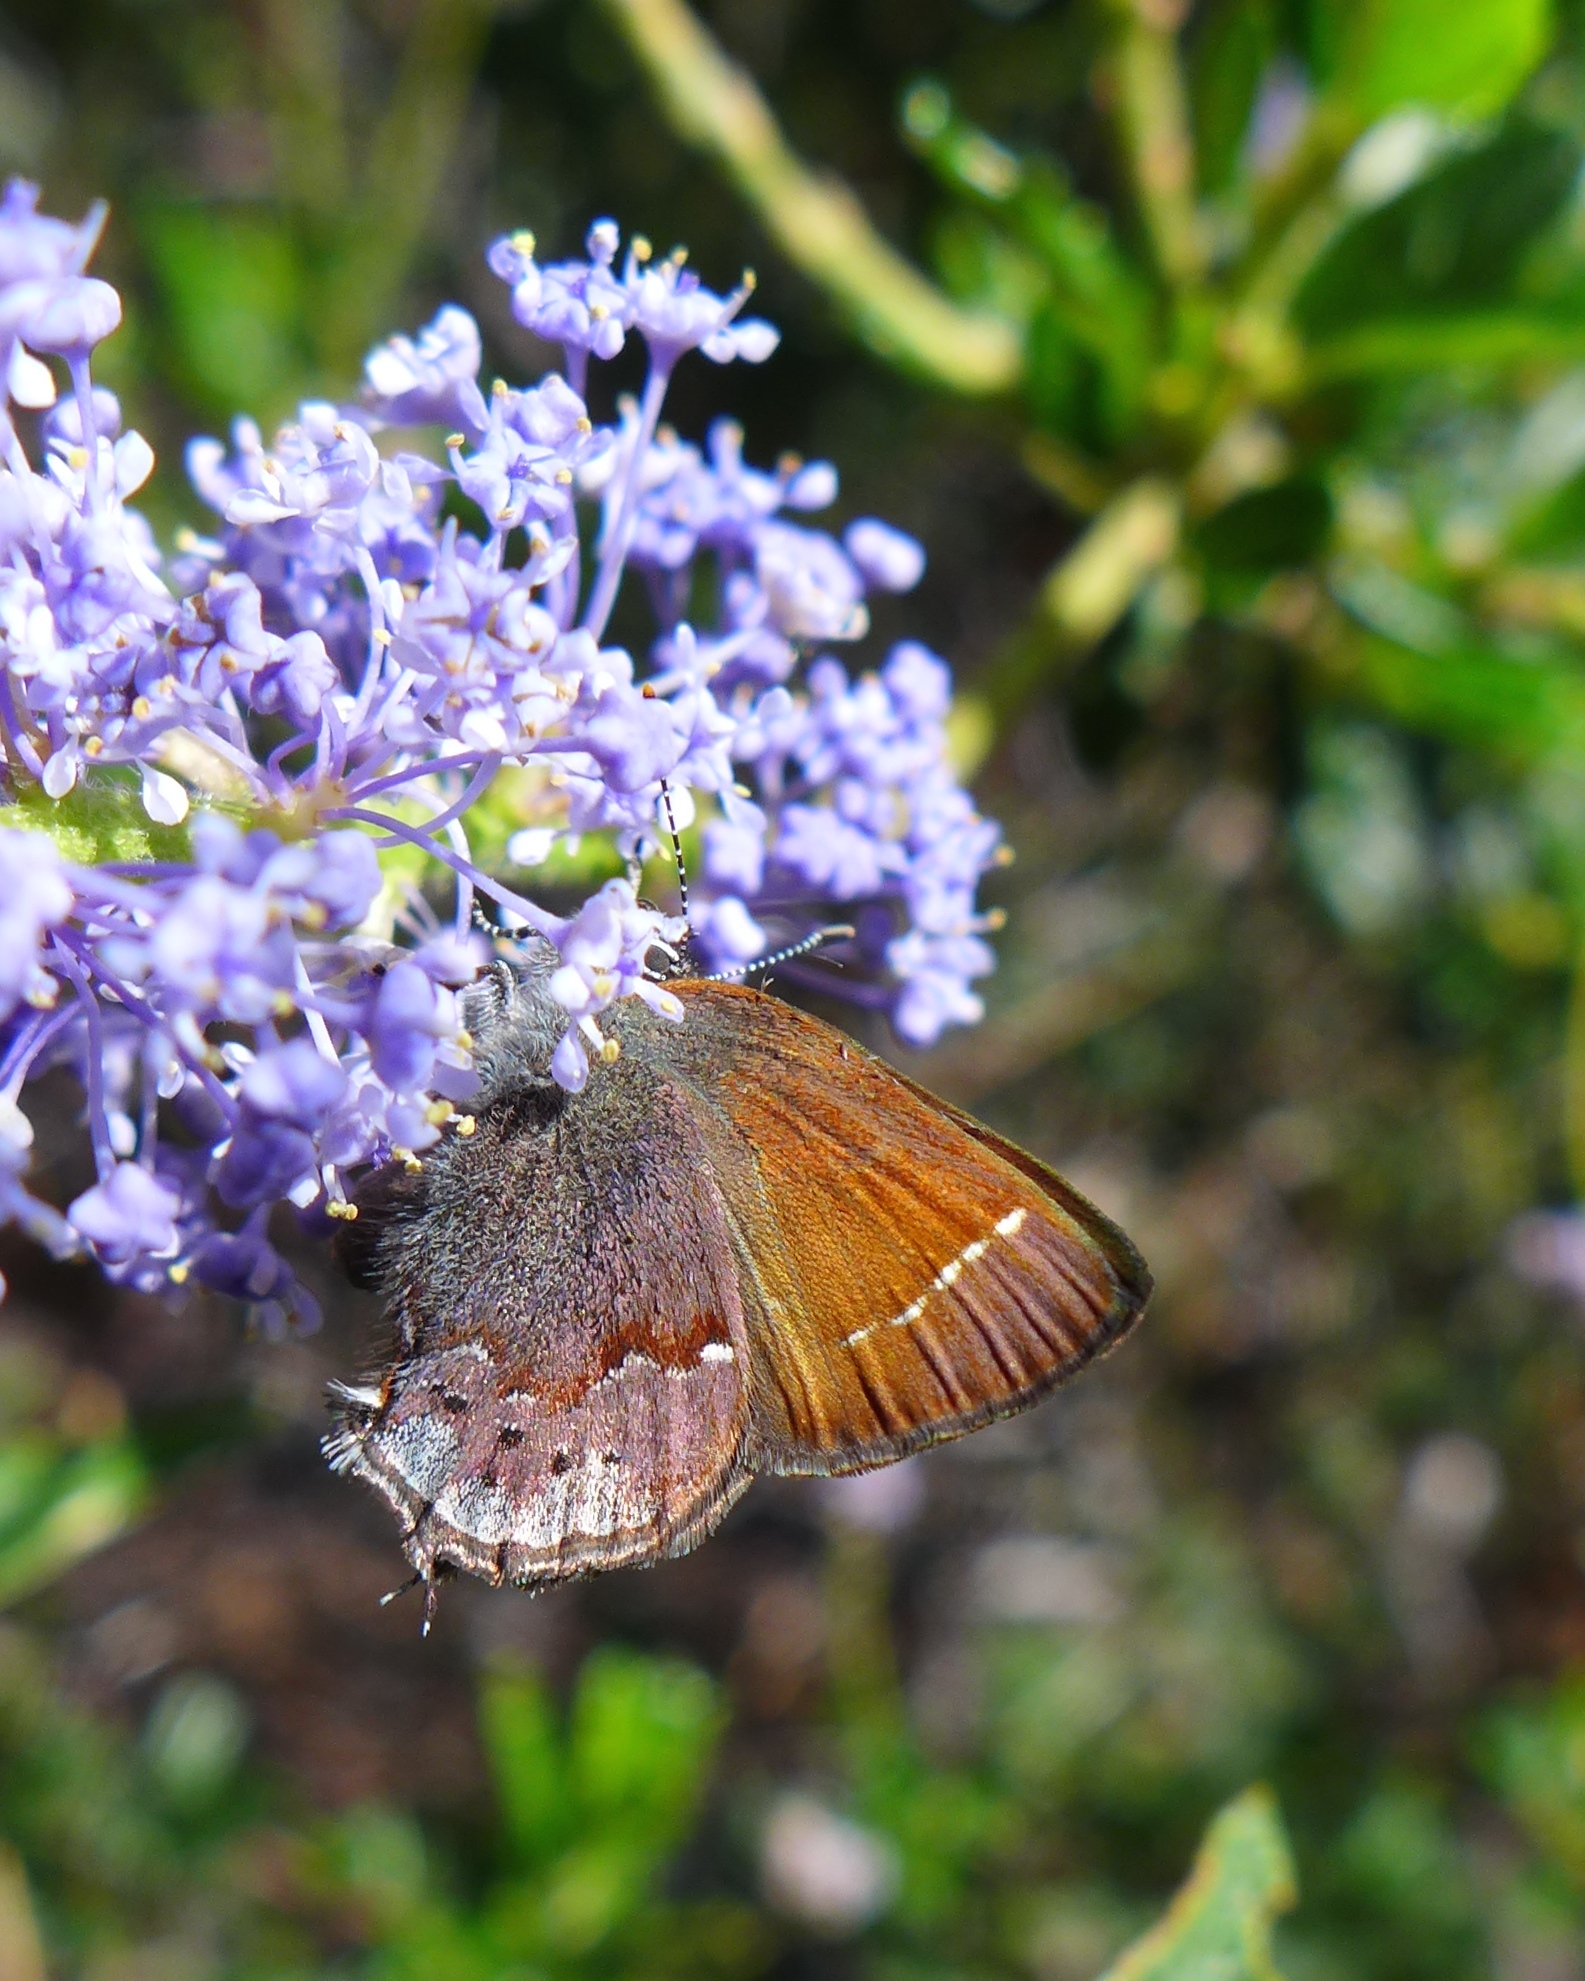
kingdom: Animalia
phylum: Arthropoda
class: Insecta
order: Lepidoptera
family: Lycaenidae
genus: Callophrys
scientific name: Callophrys muiri
